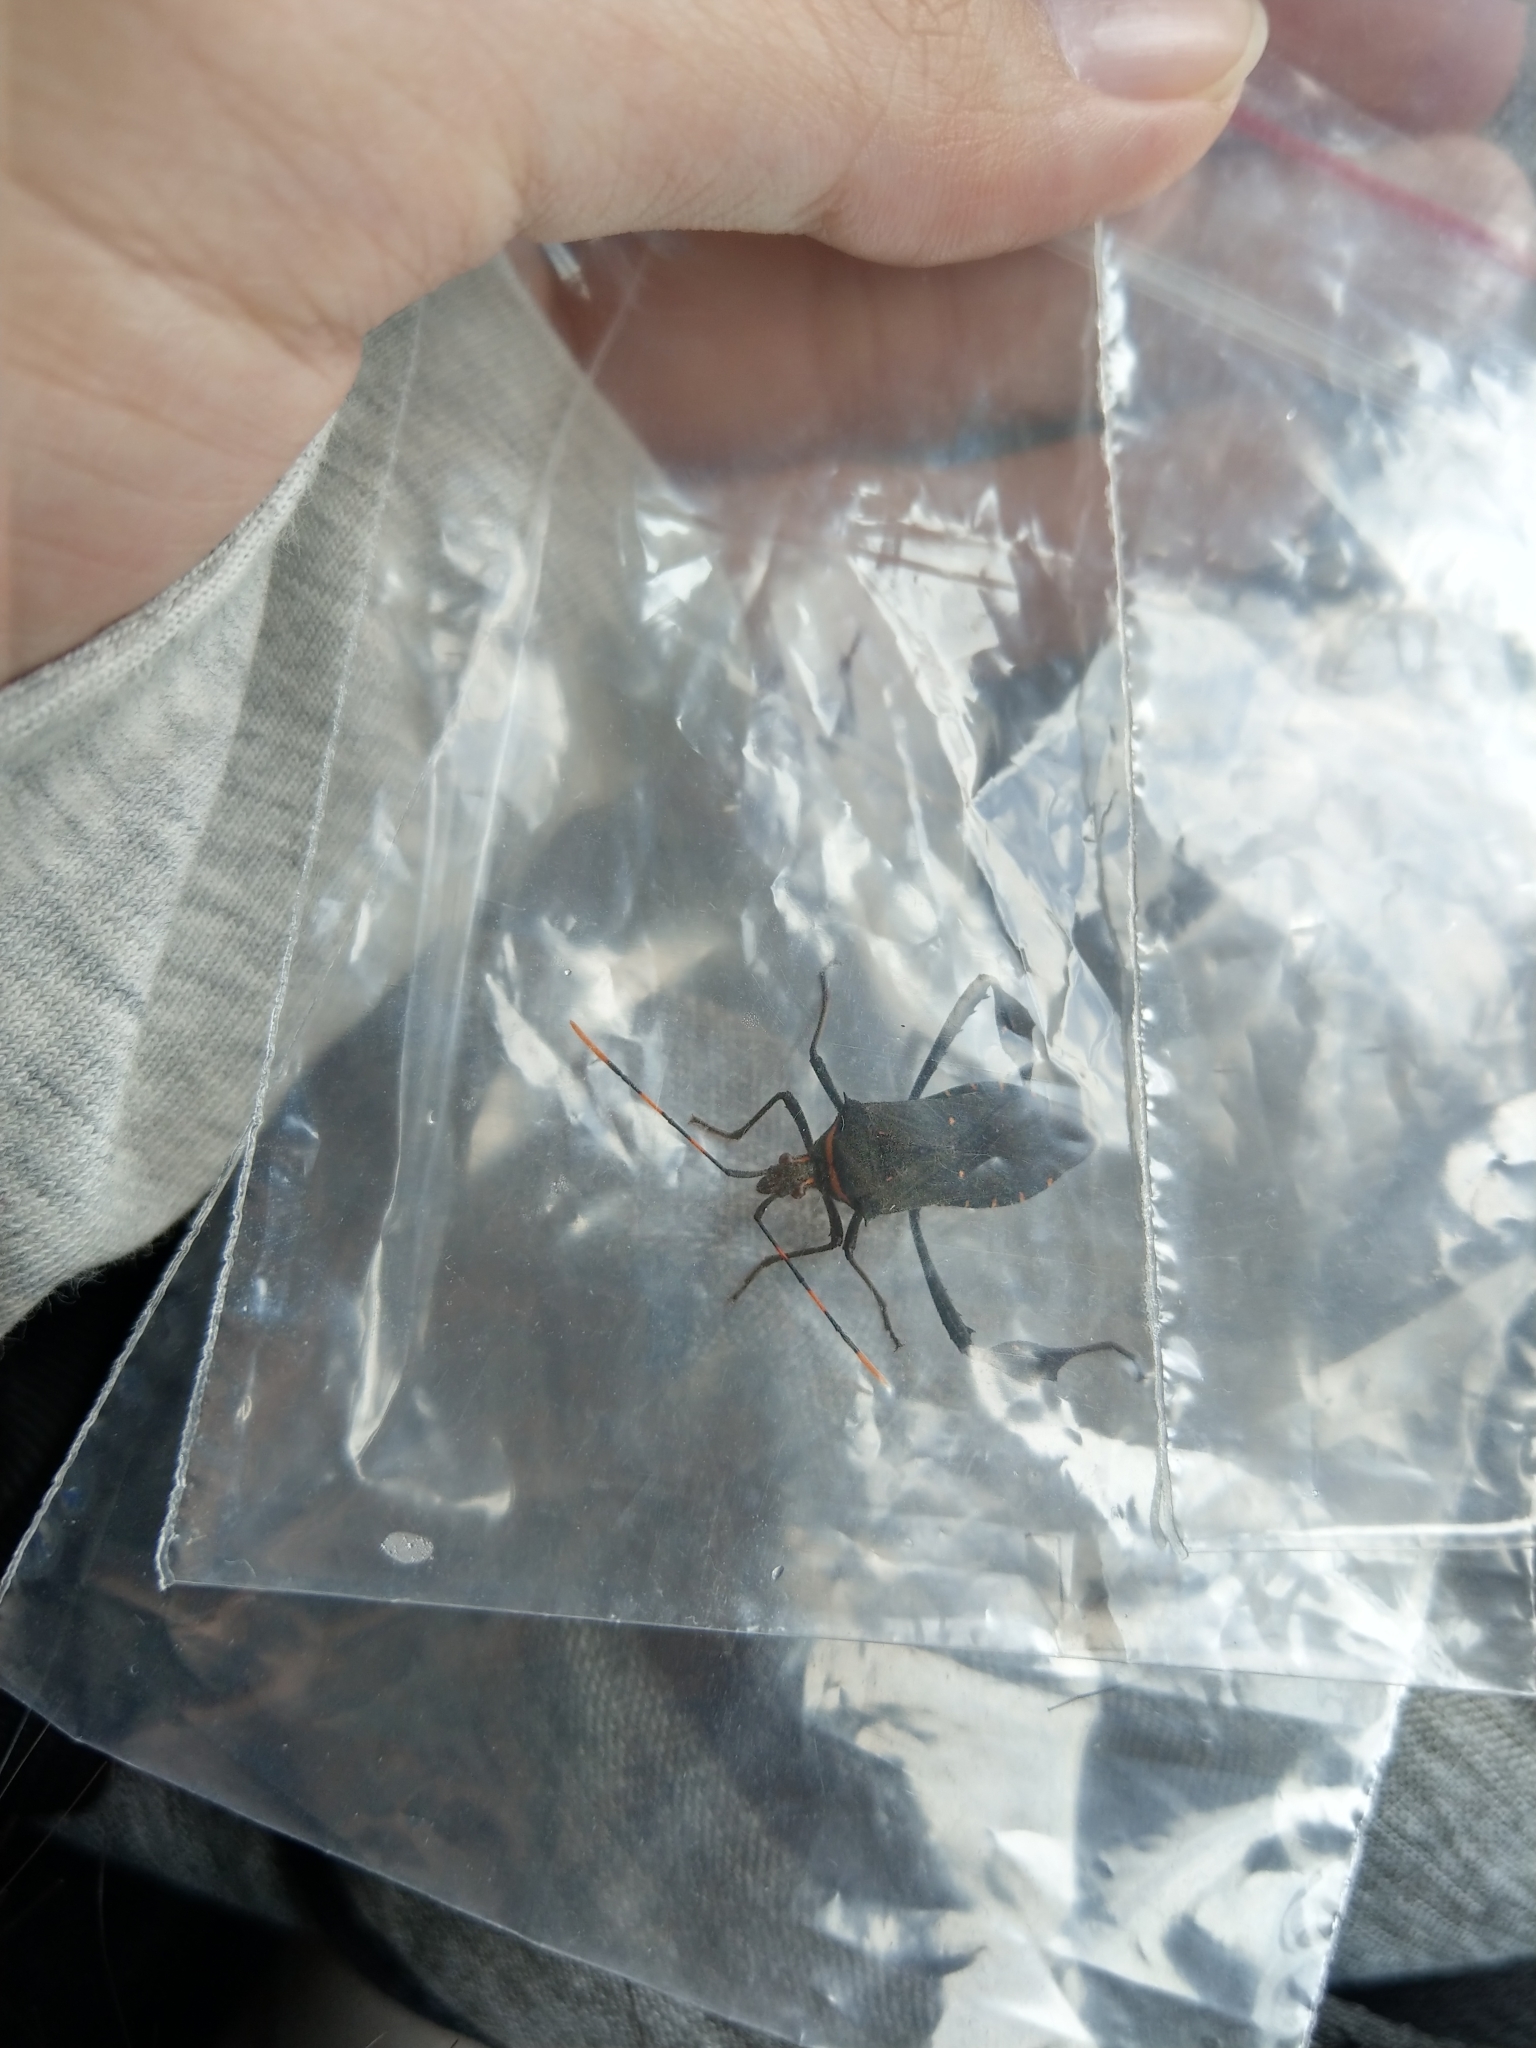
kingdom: Animalia
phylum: Arthropoda
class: Insecta
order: Hemiptera
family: Coreidae
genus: Leptoglossus
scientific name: Leptoglossus gonagra
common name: Citron bug
